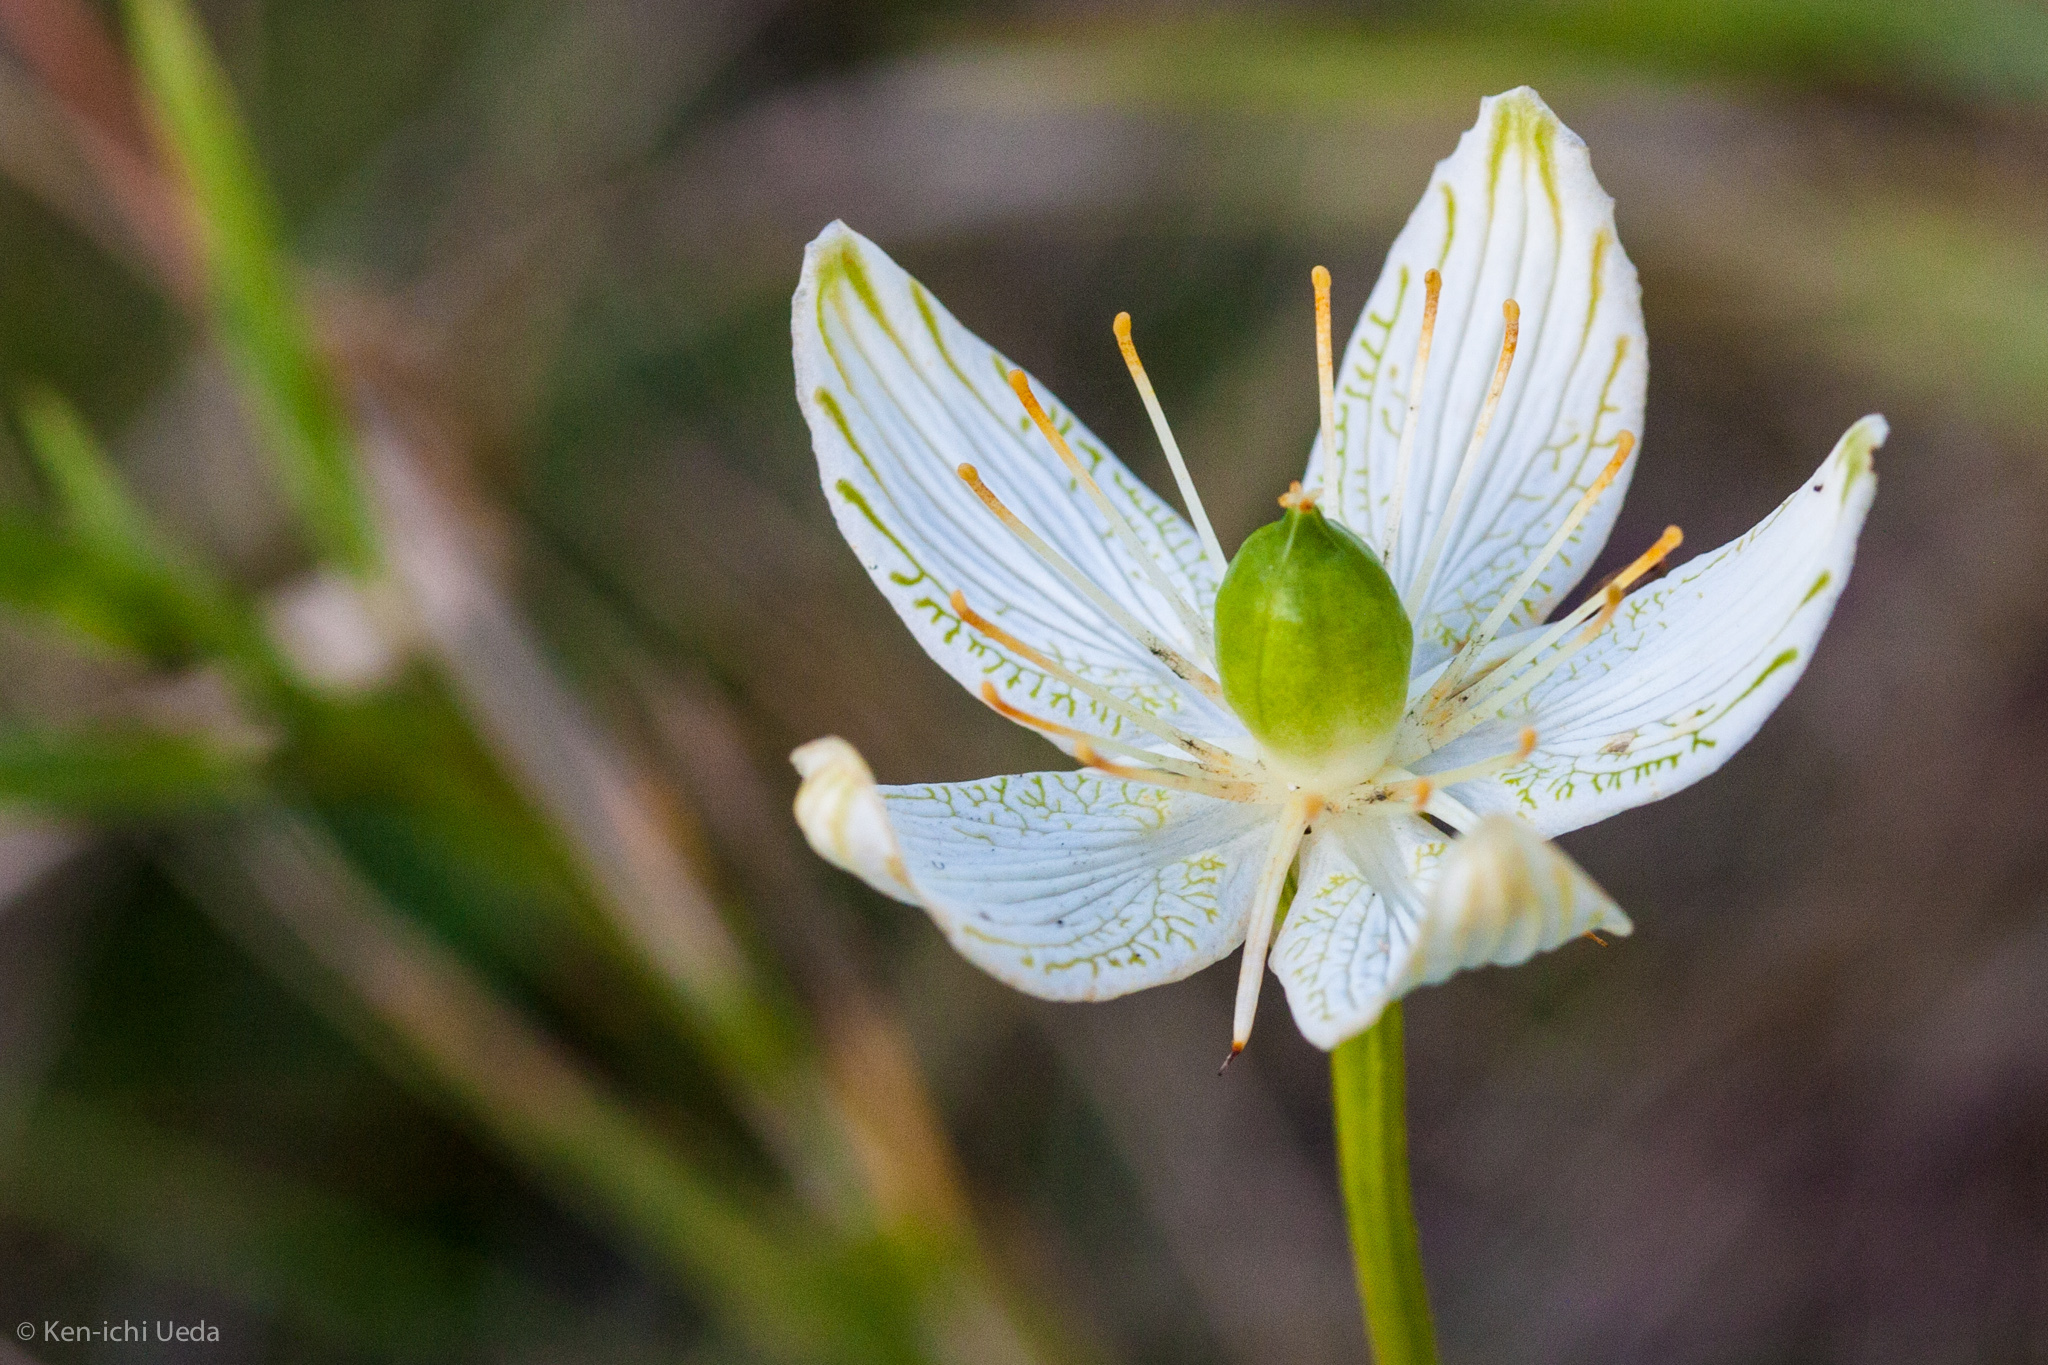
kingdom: Plantae
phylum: Tracheophyta
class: Magnoliopsida
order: Celastrales
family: Parnassiaceae
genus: Parnassia
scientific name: Parnassia grandifolia
